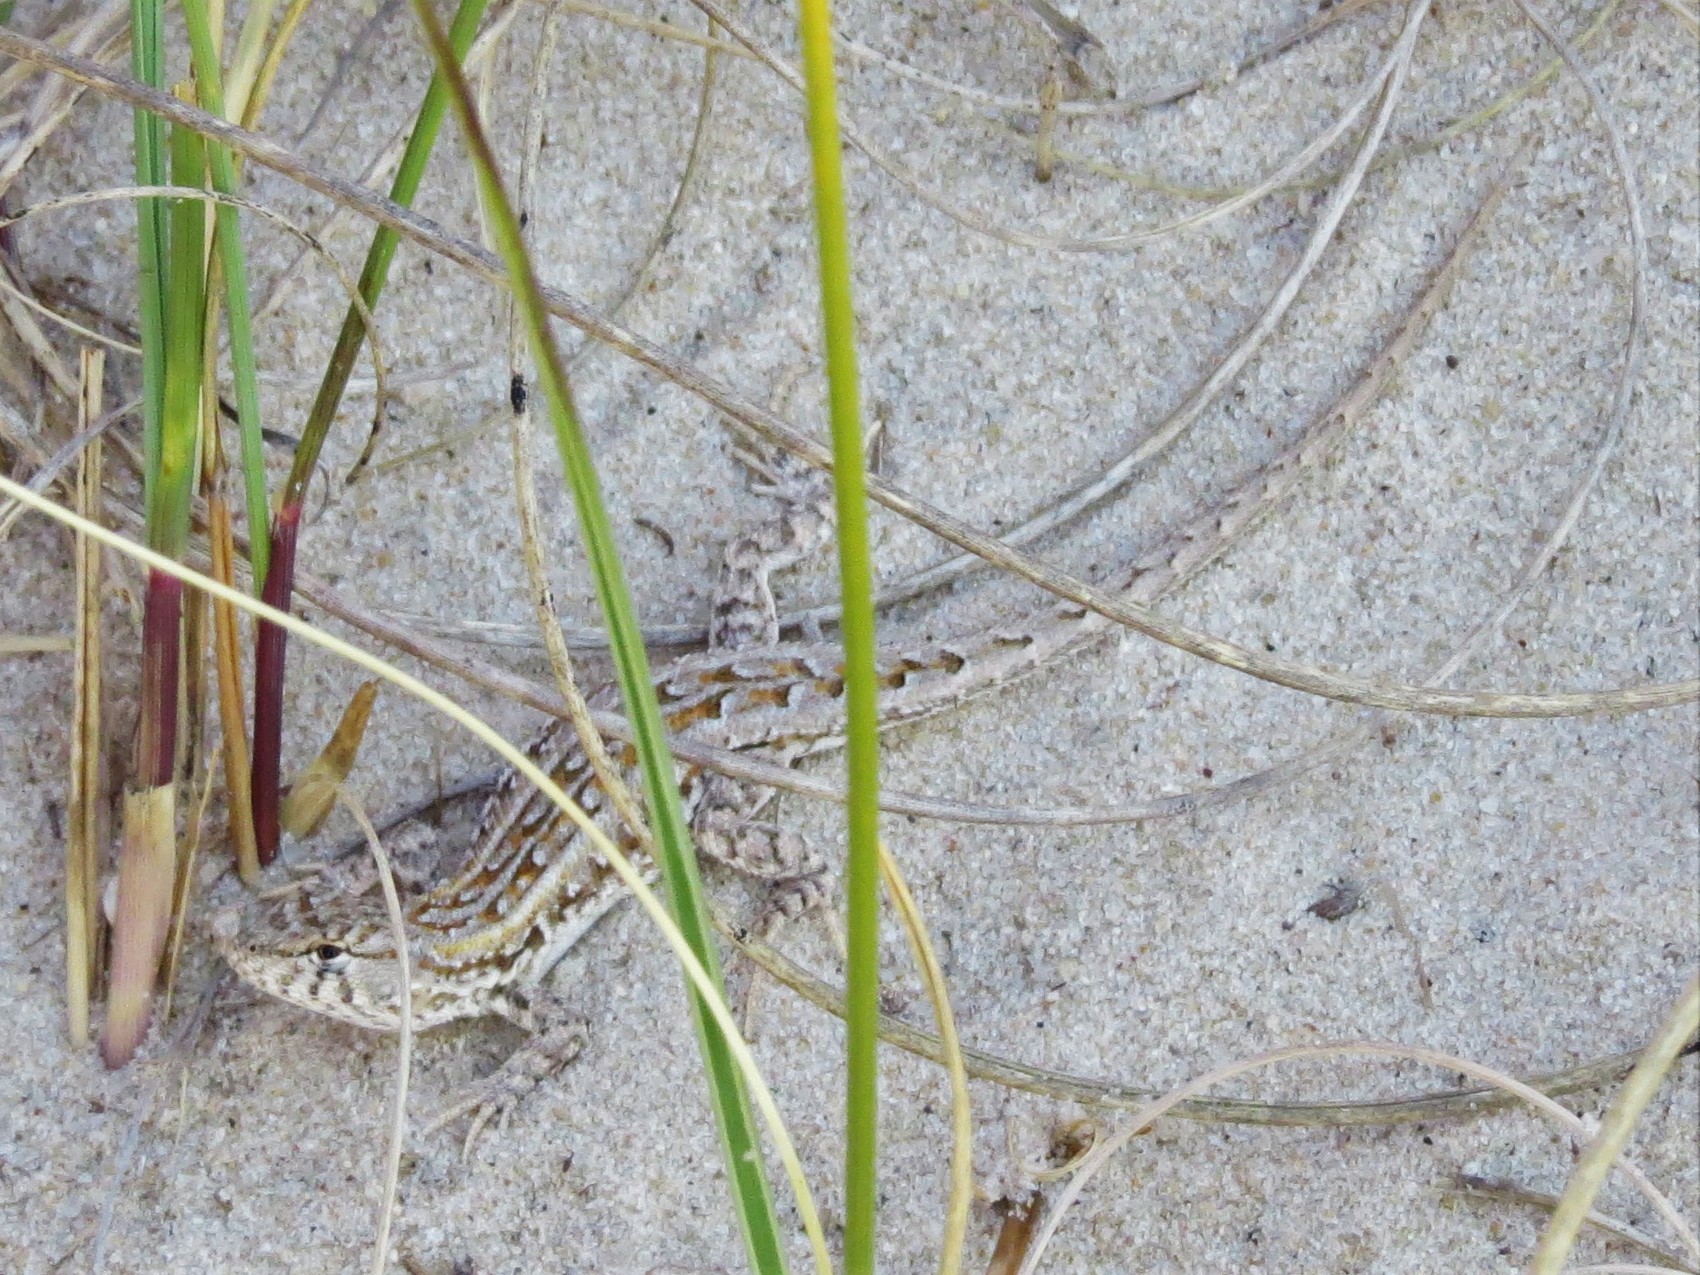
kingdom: Animalia
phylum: Chordata
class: Squamata
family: Liolaemidae
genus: Liolaemus
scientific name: Liolaemus wiegmannii
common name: Wiegmann's tree iguana
